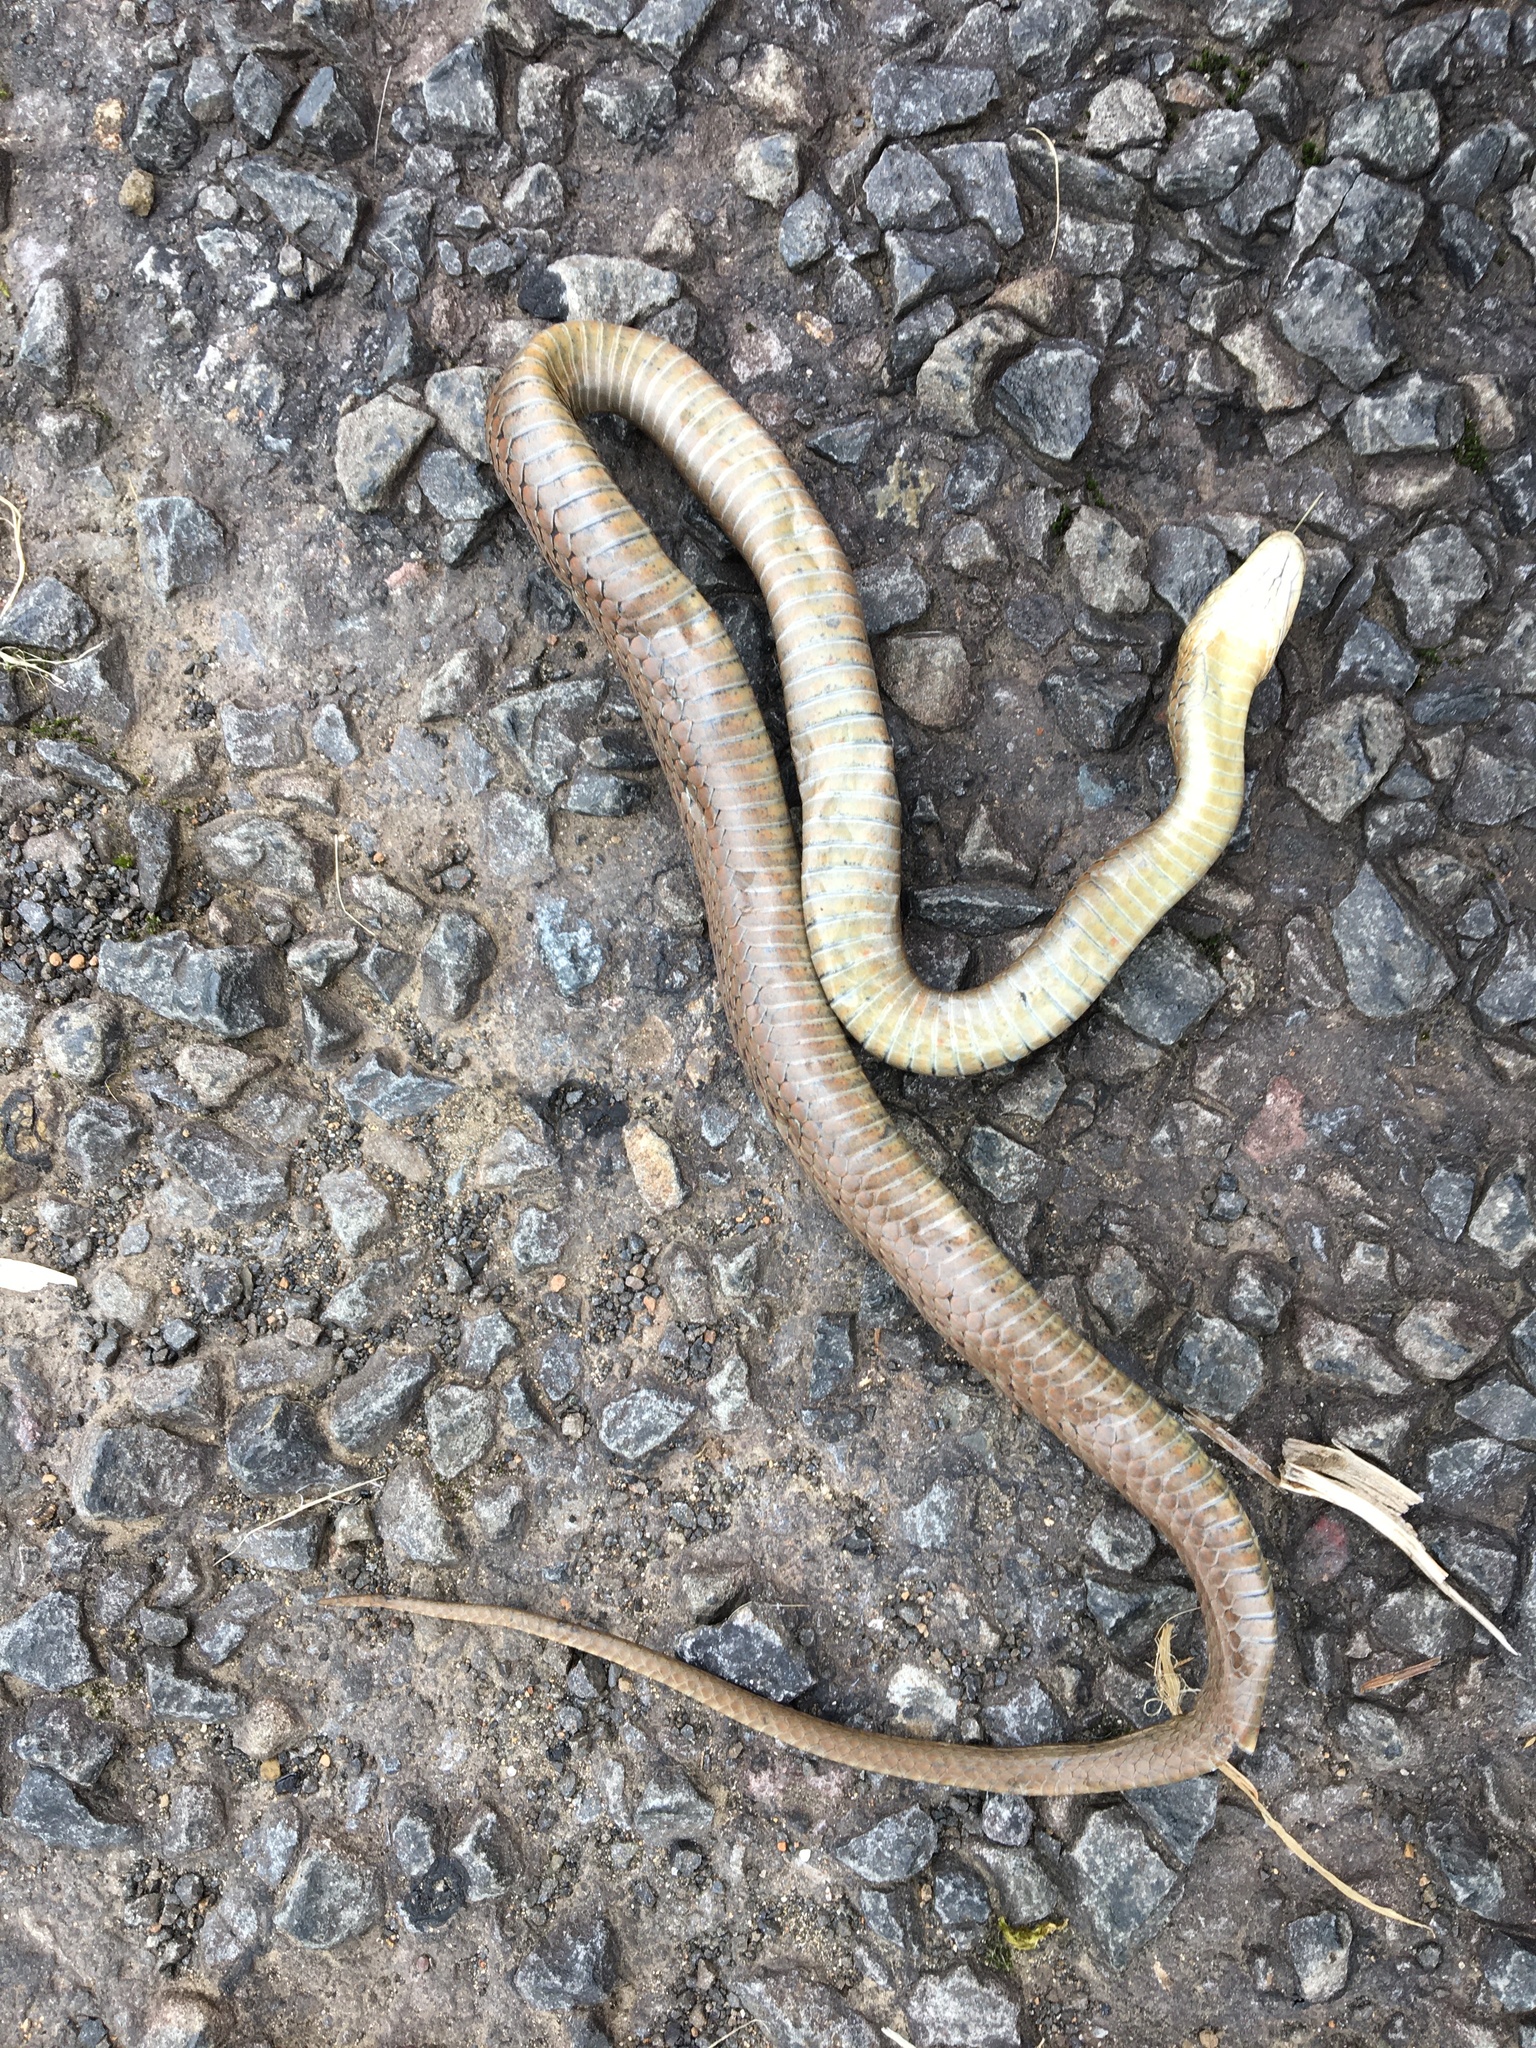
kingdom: Animalia
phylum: Chordata
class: Squamata
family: Colubridae
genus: Thamnophis
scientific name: Thamnophis ordinoides
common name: Northwestern garter snake
